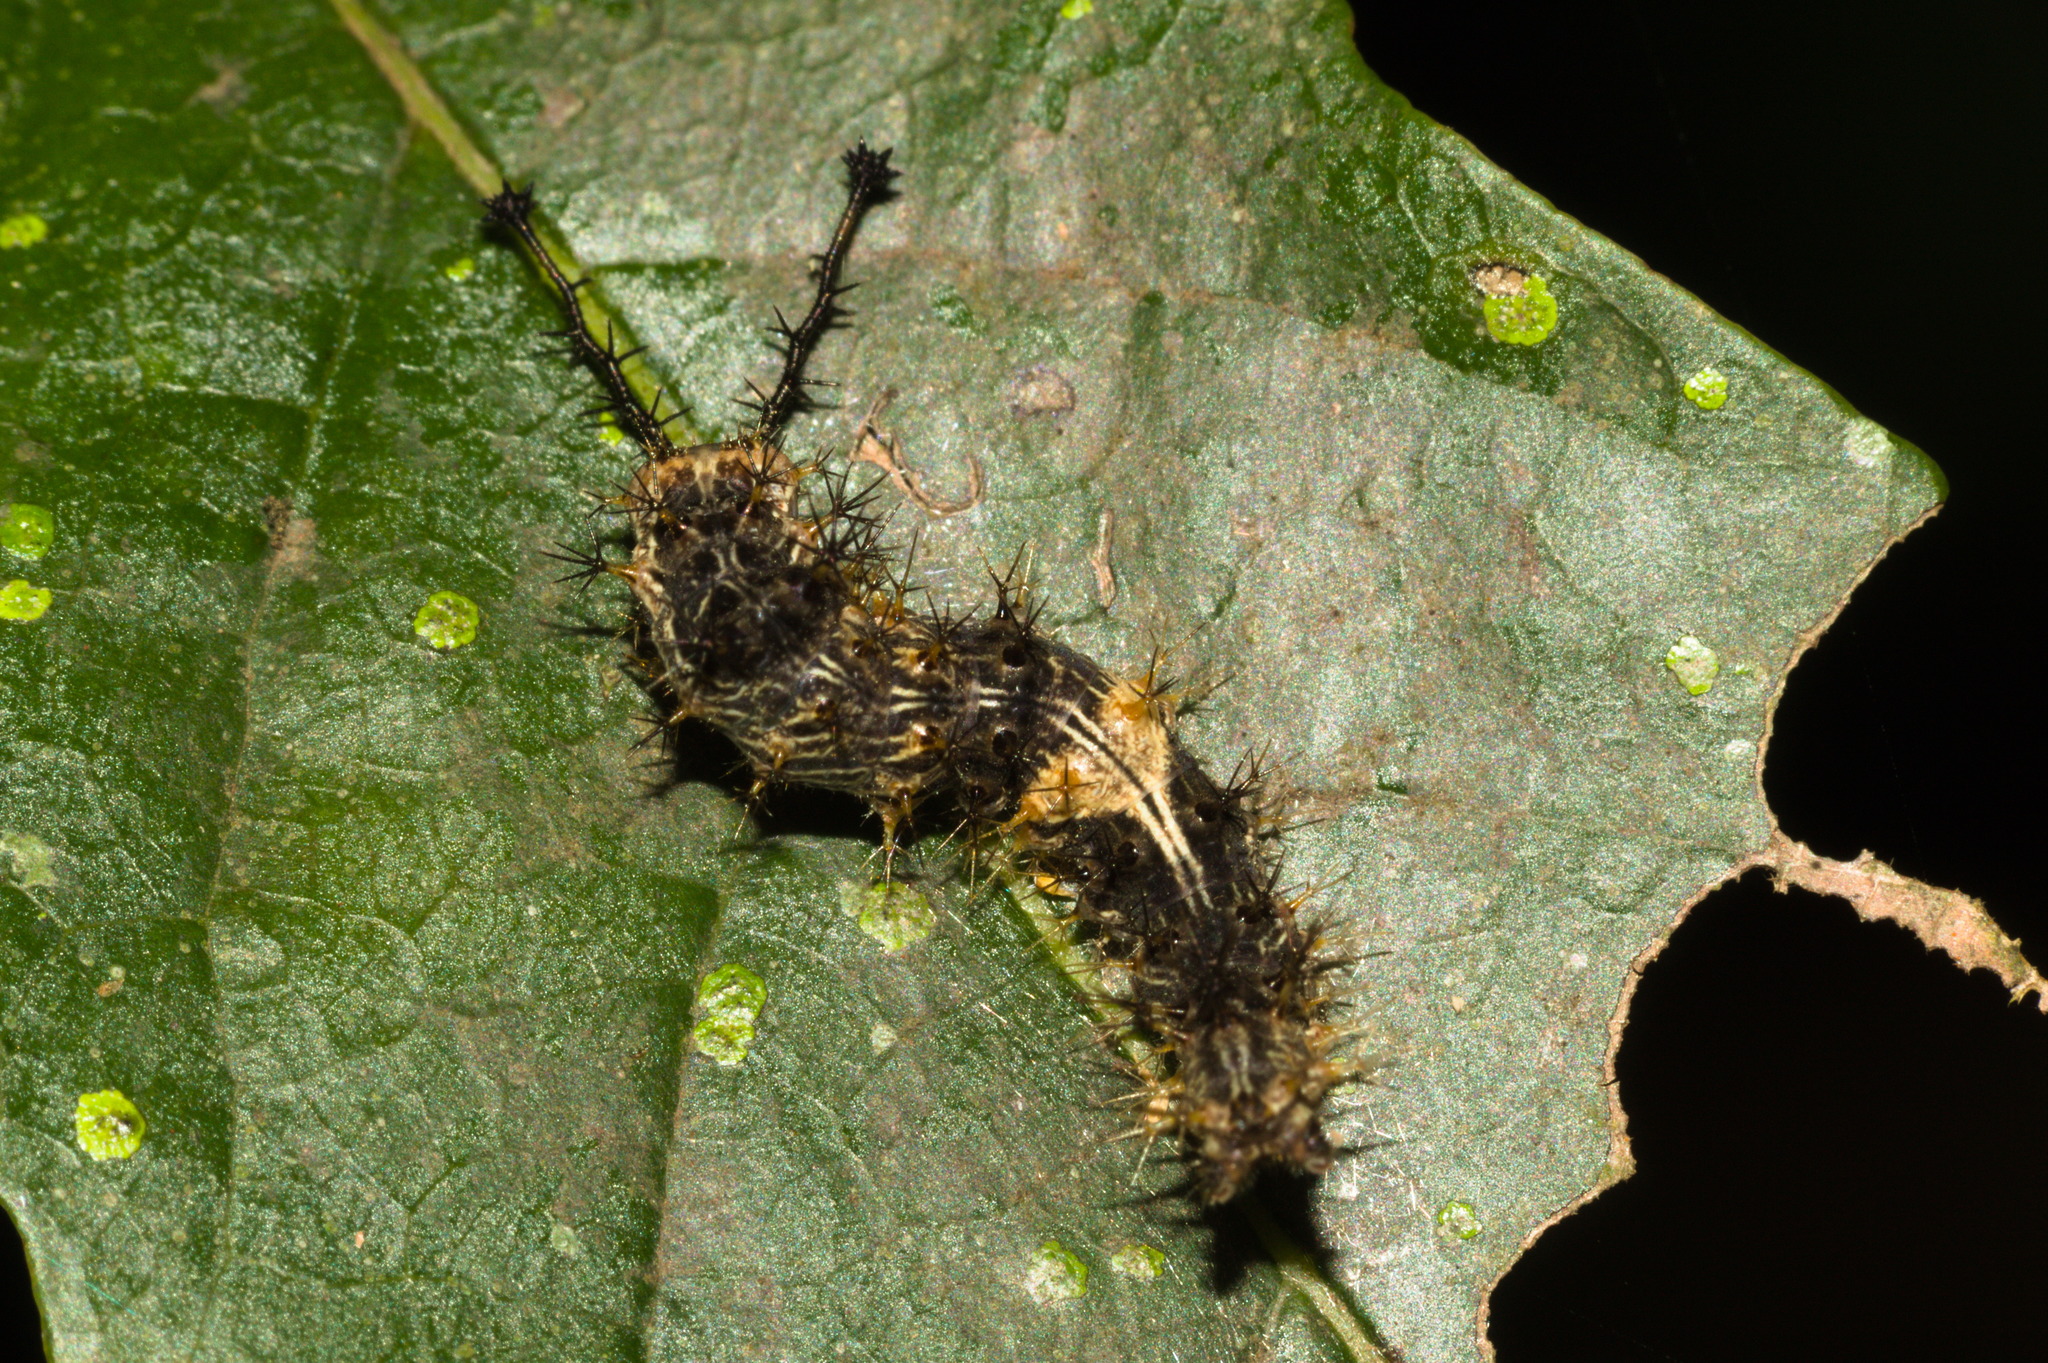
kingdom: Animalia
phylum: Arthropoda
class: Insecta
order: Lepidoptera
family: Sesiidae
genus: Sesia
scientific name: Sesia Biblis hyperia
